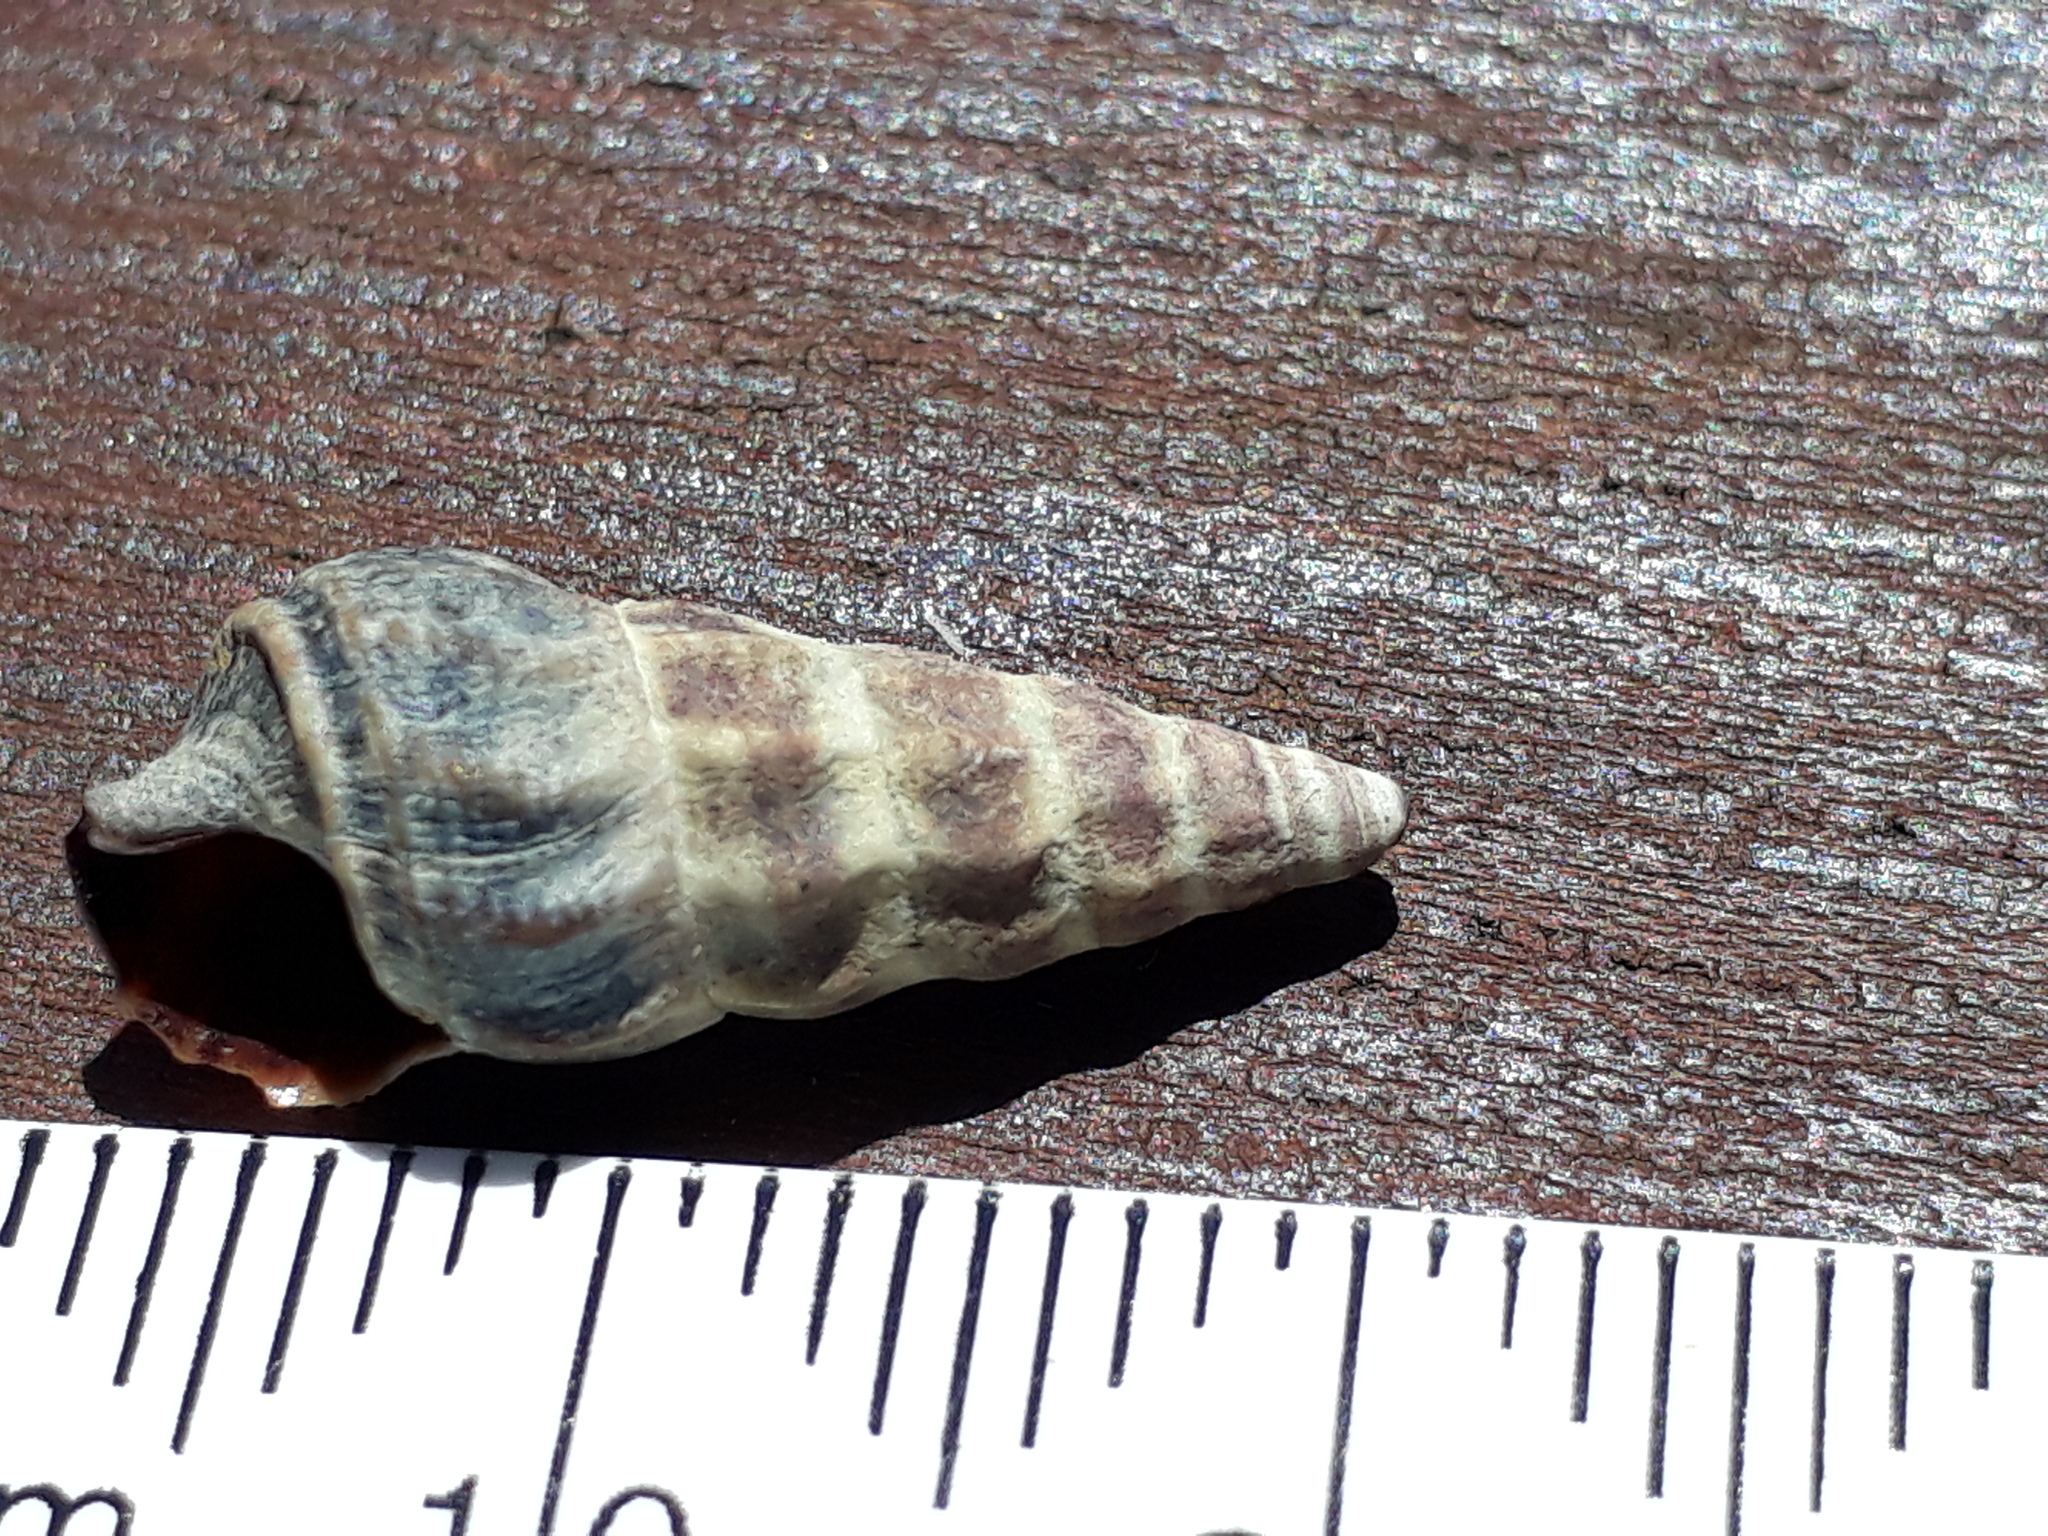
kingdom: Animalia
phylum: Mollusca
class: Gastropoda
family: Batillariidae
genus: Zeacumantus
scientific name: Zeacumantus lutulentus
